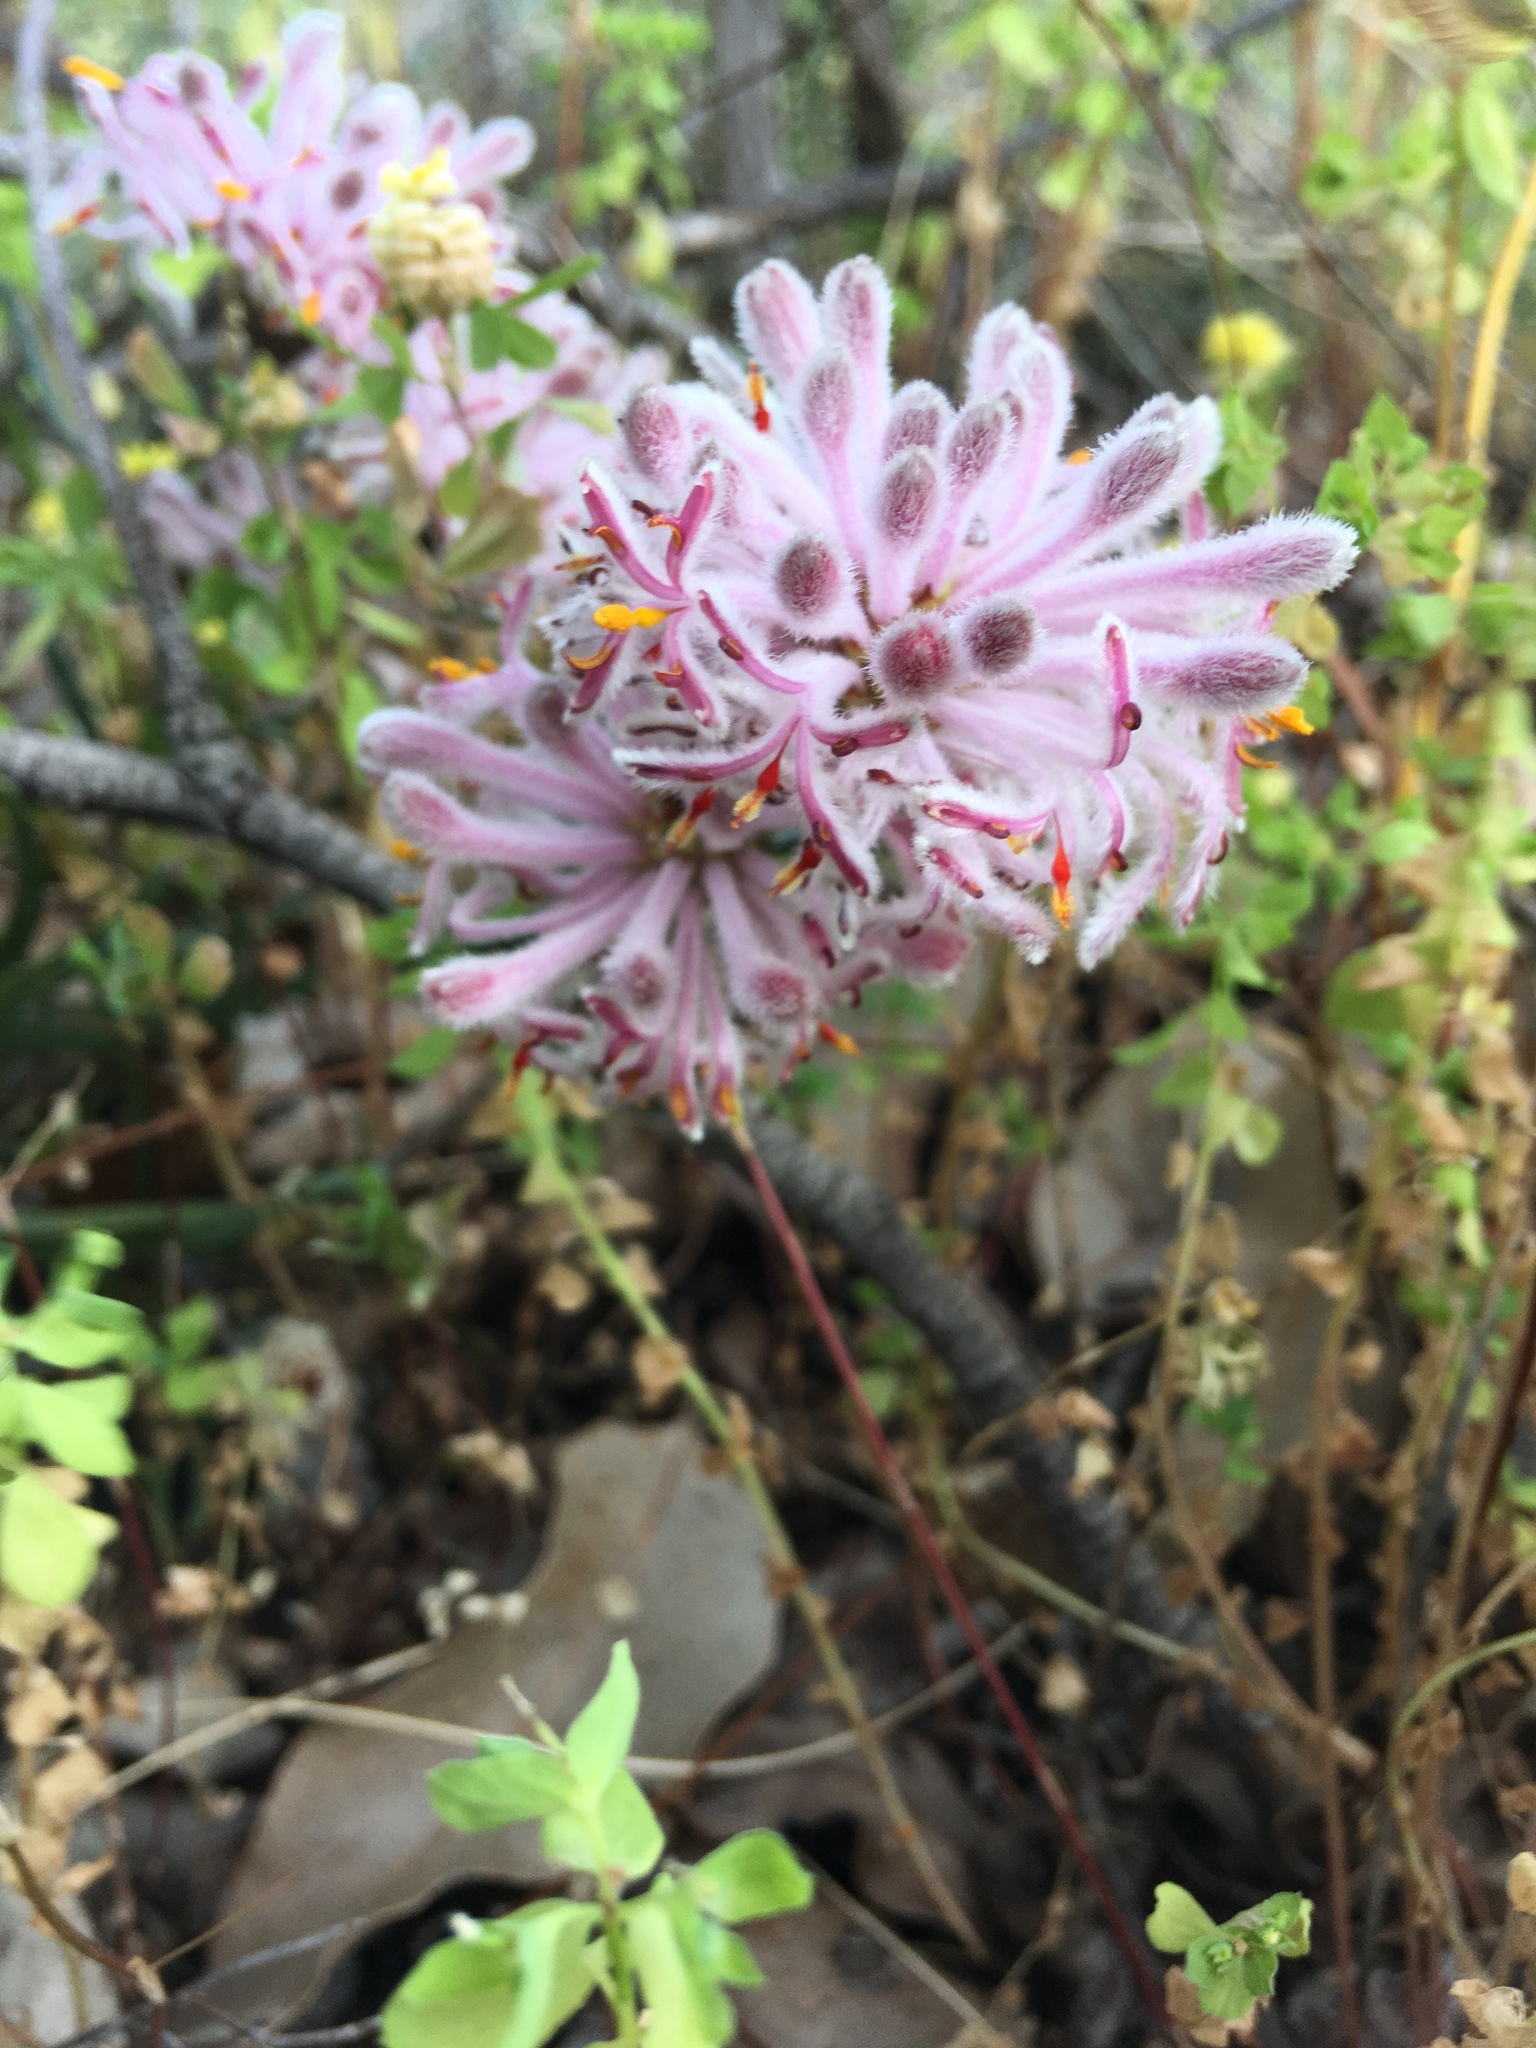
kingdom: Plantae
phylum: Tracheophyta
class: Magnoliopsida
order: Proteales
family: Proteaceae
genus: Petrophile
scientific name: Petrophile linearis
